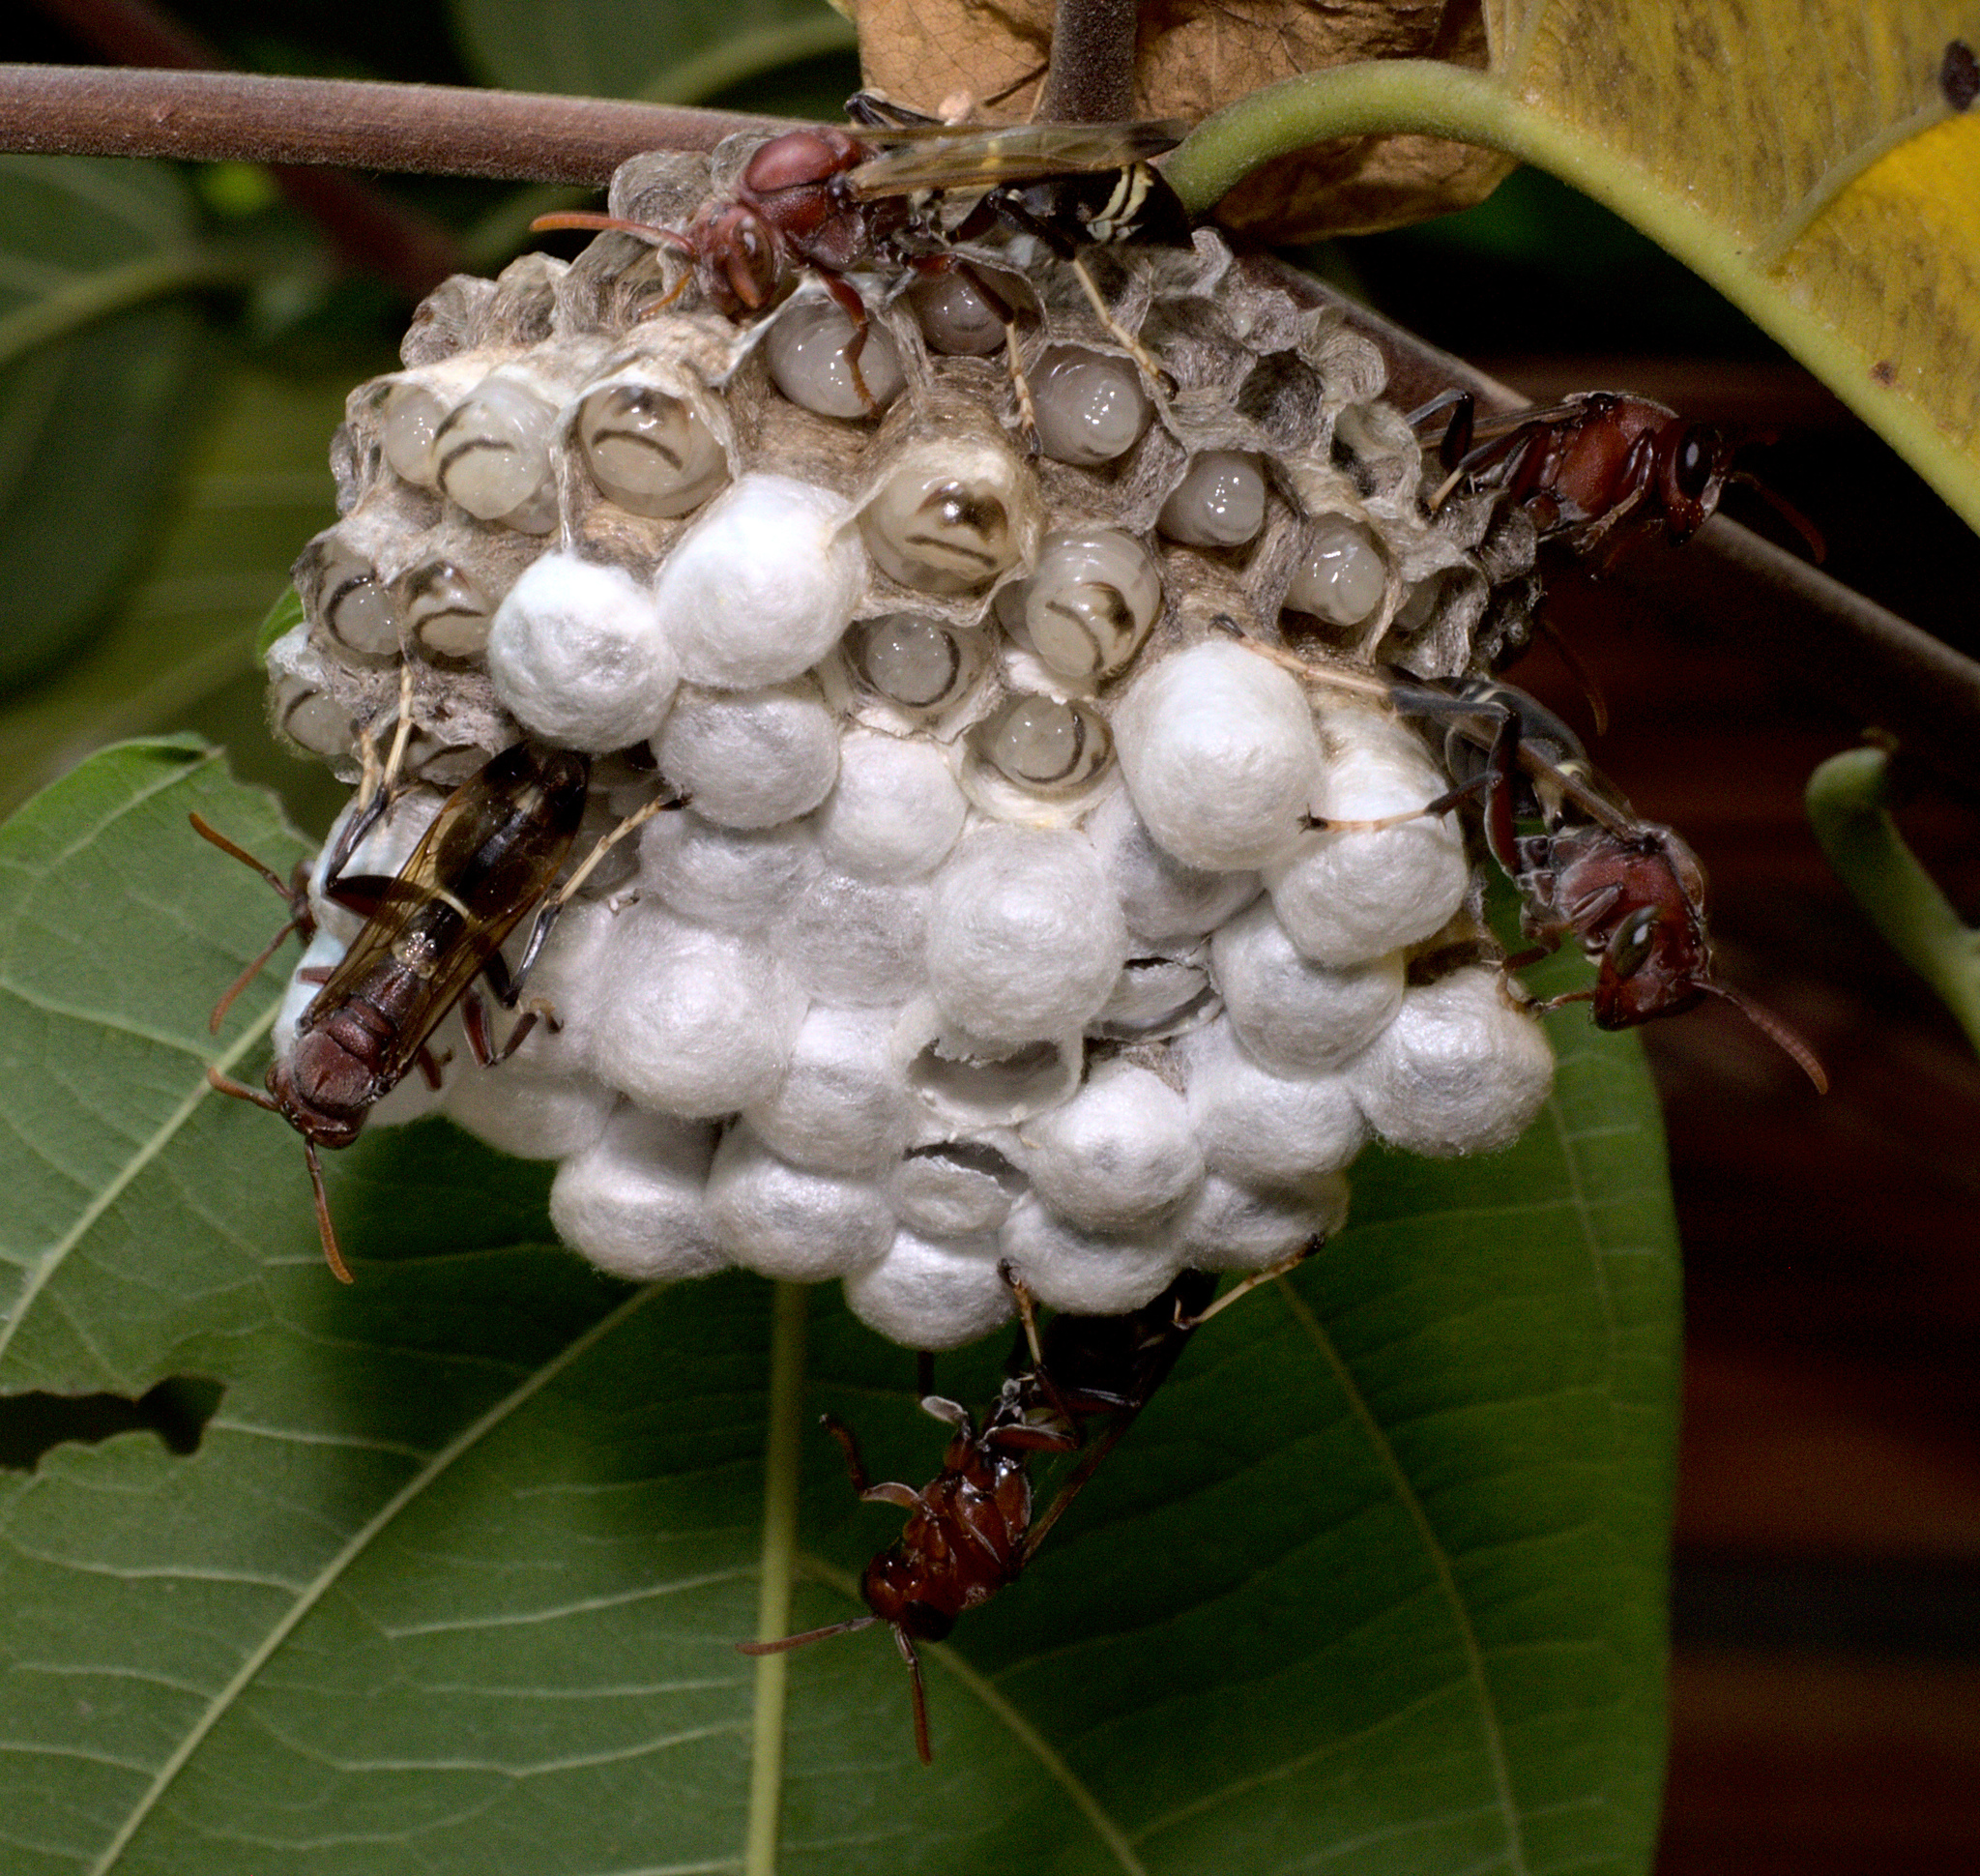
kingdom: Animalia
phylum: Arthropoda
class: Insecta
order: Hymenoptera
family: Eumenidae
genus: Polistes
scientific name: Polistes brunus
